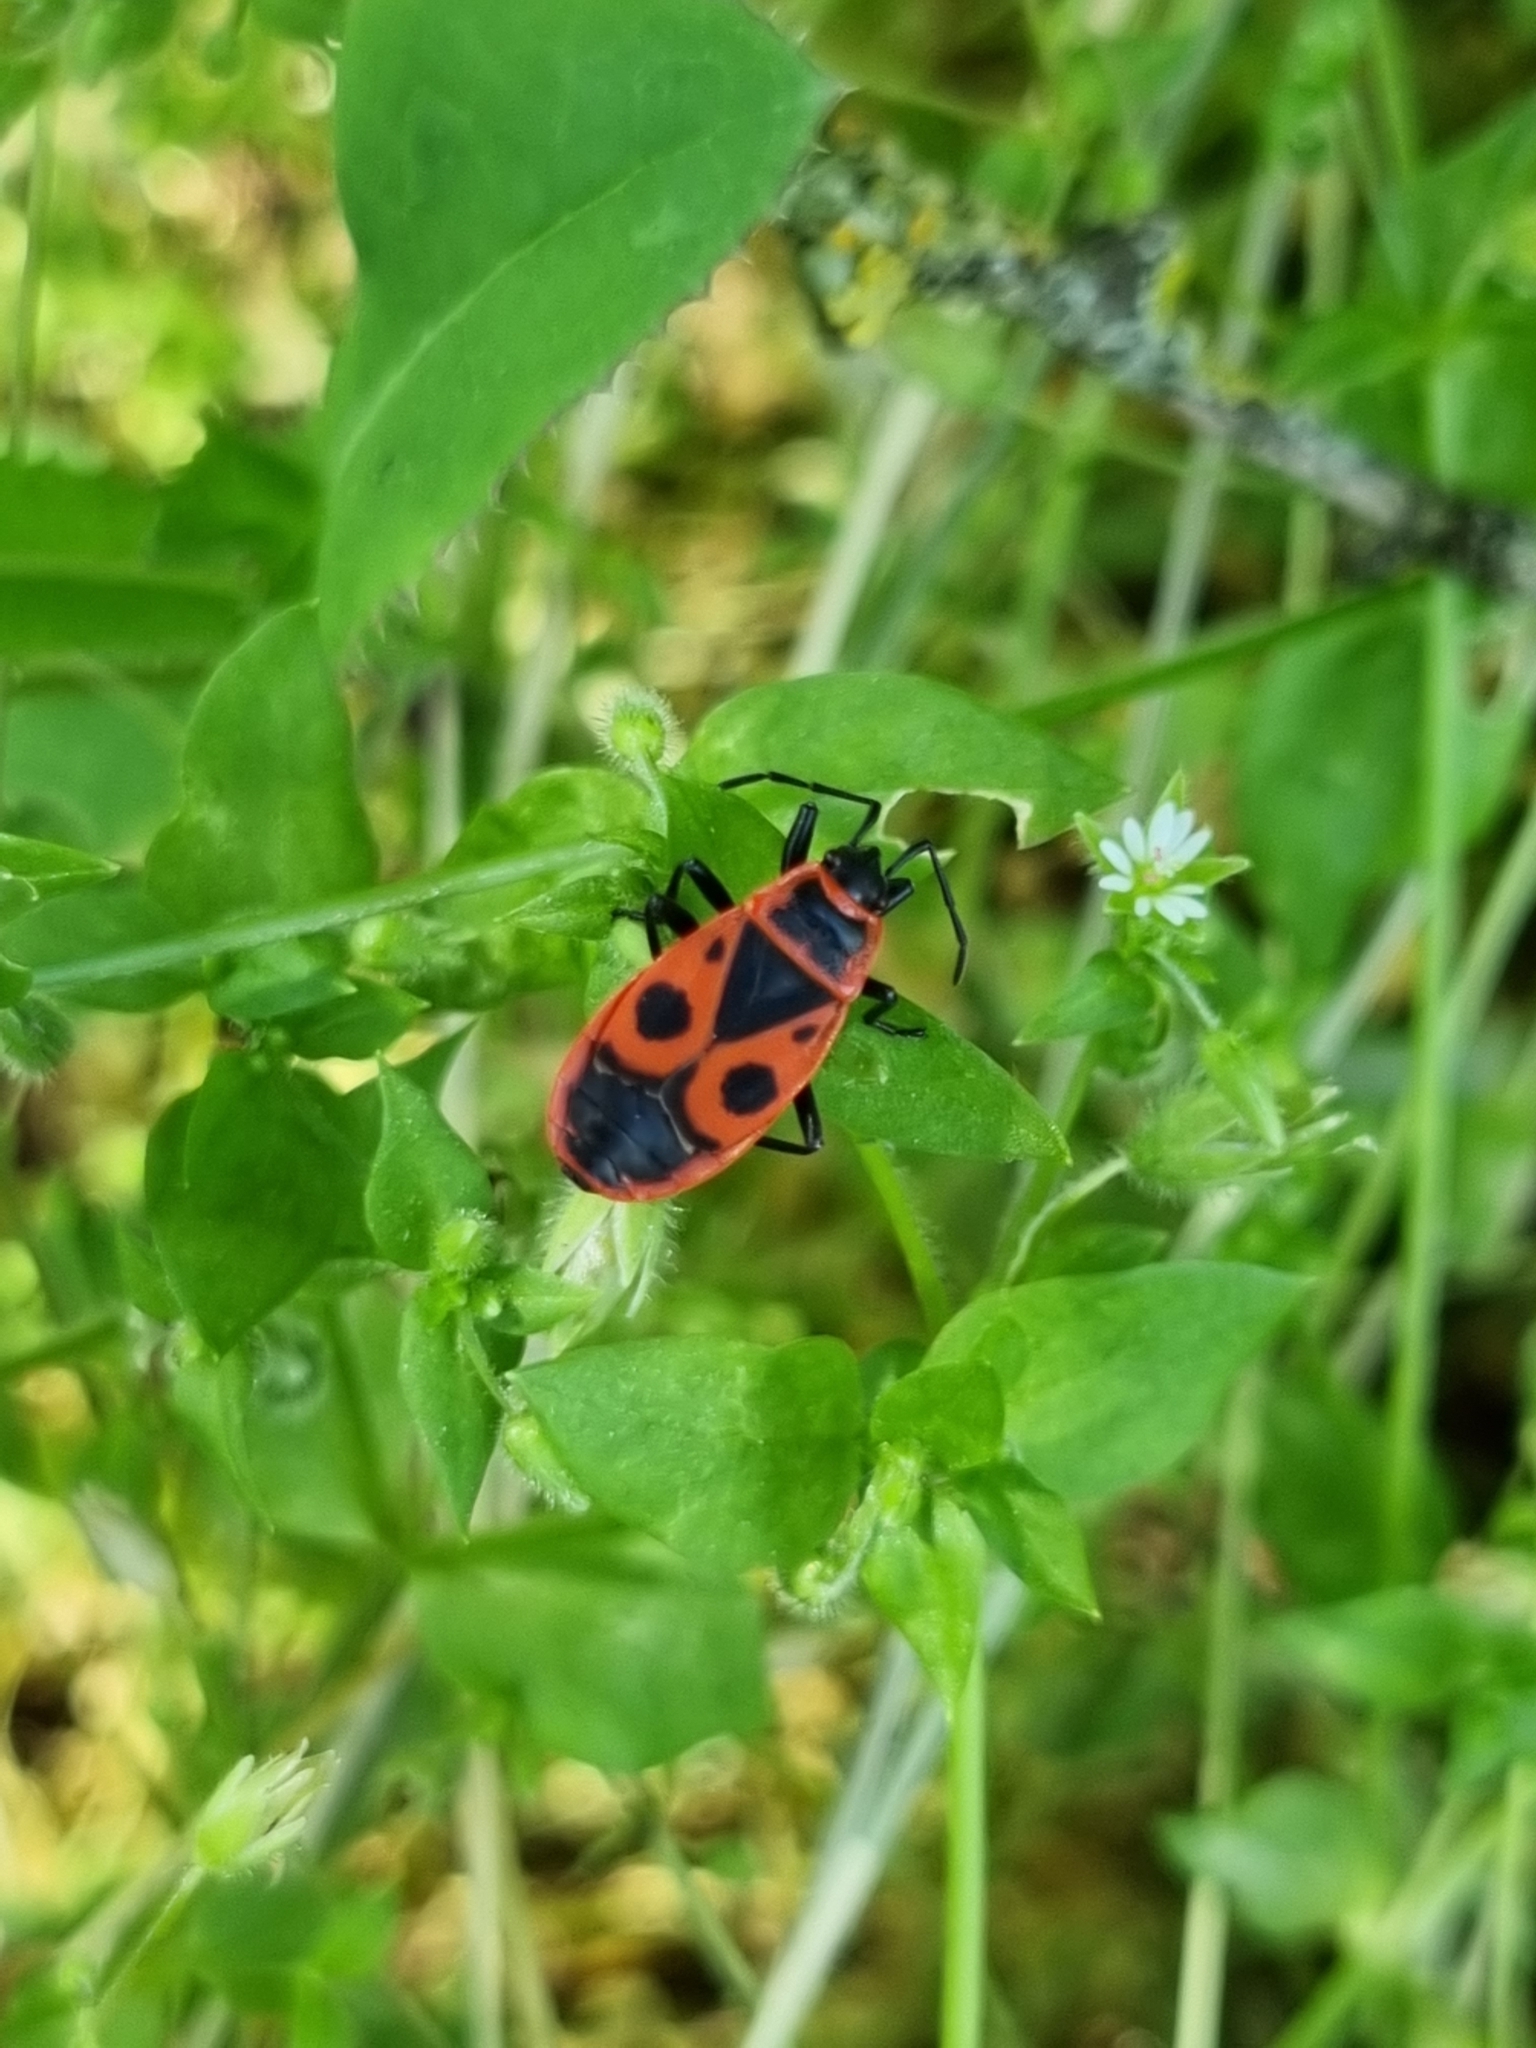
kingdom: Animalia
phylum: Arthropoda
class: Insecta
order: Hemiptera
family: Pyrrhocoridae
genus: Pyrrhocoris
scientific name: Pyrrhocoris apterus
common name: Firebug
